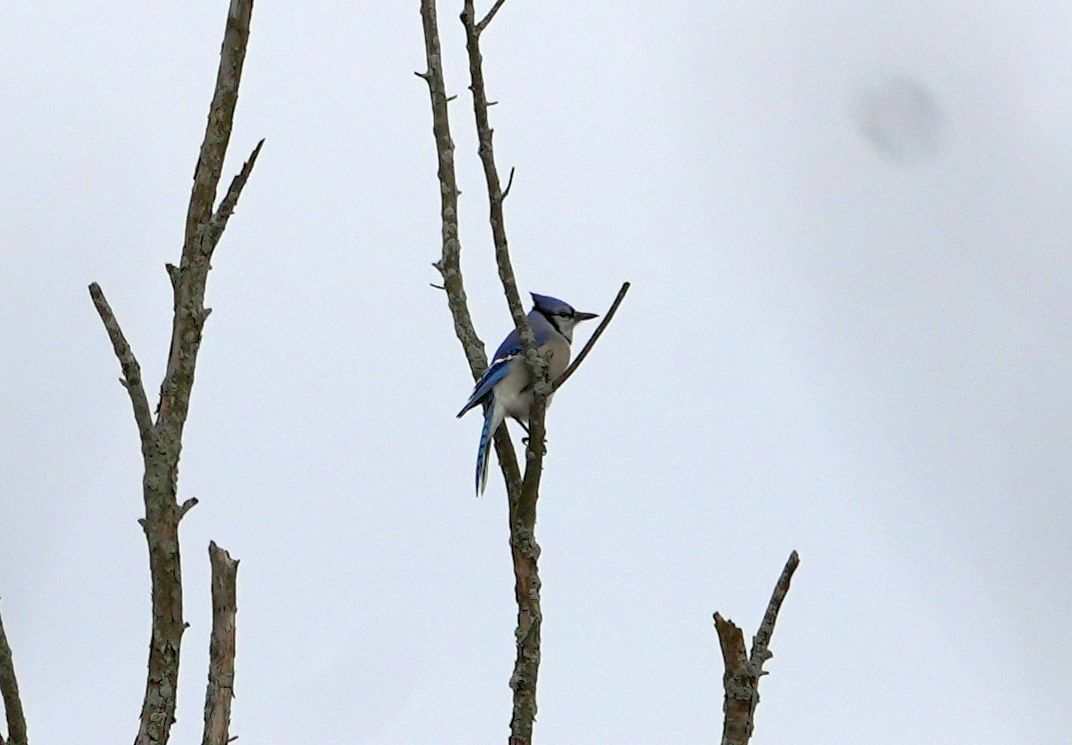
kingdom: Animalia
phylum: Chordata
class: Aves
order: Passeriformes
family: Corvidae
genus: Cyanocitta
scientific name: Cyanocitta cristata
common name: Blue jay
